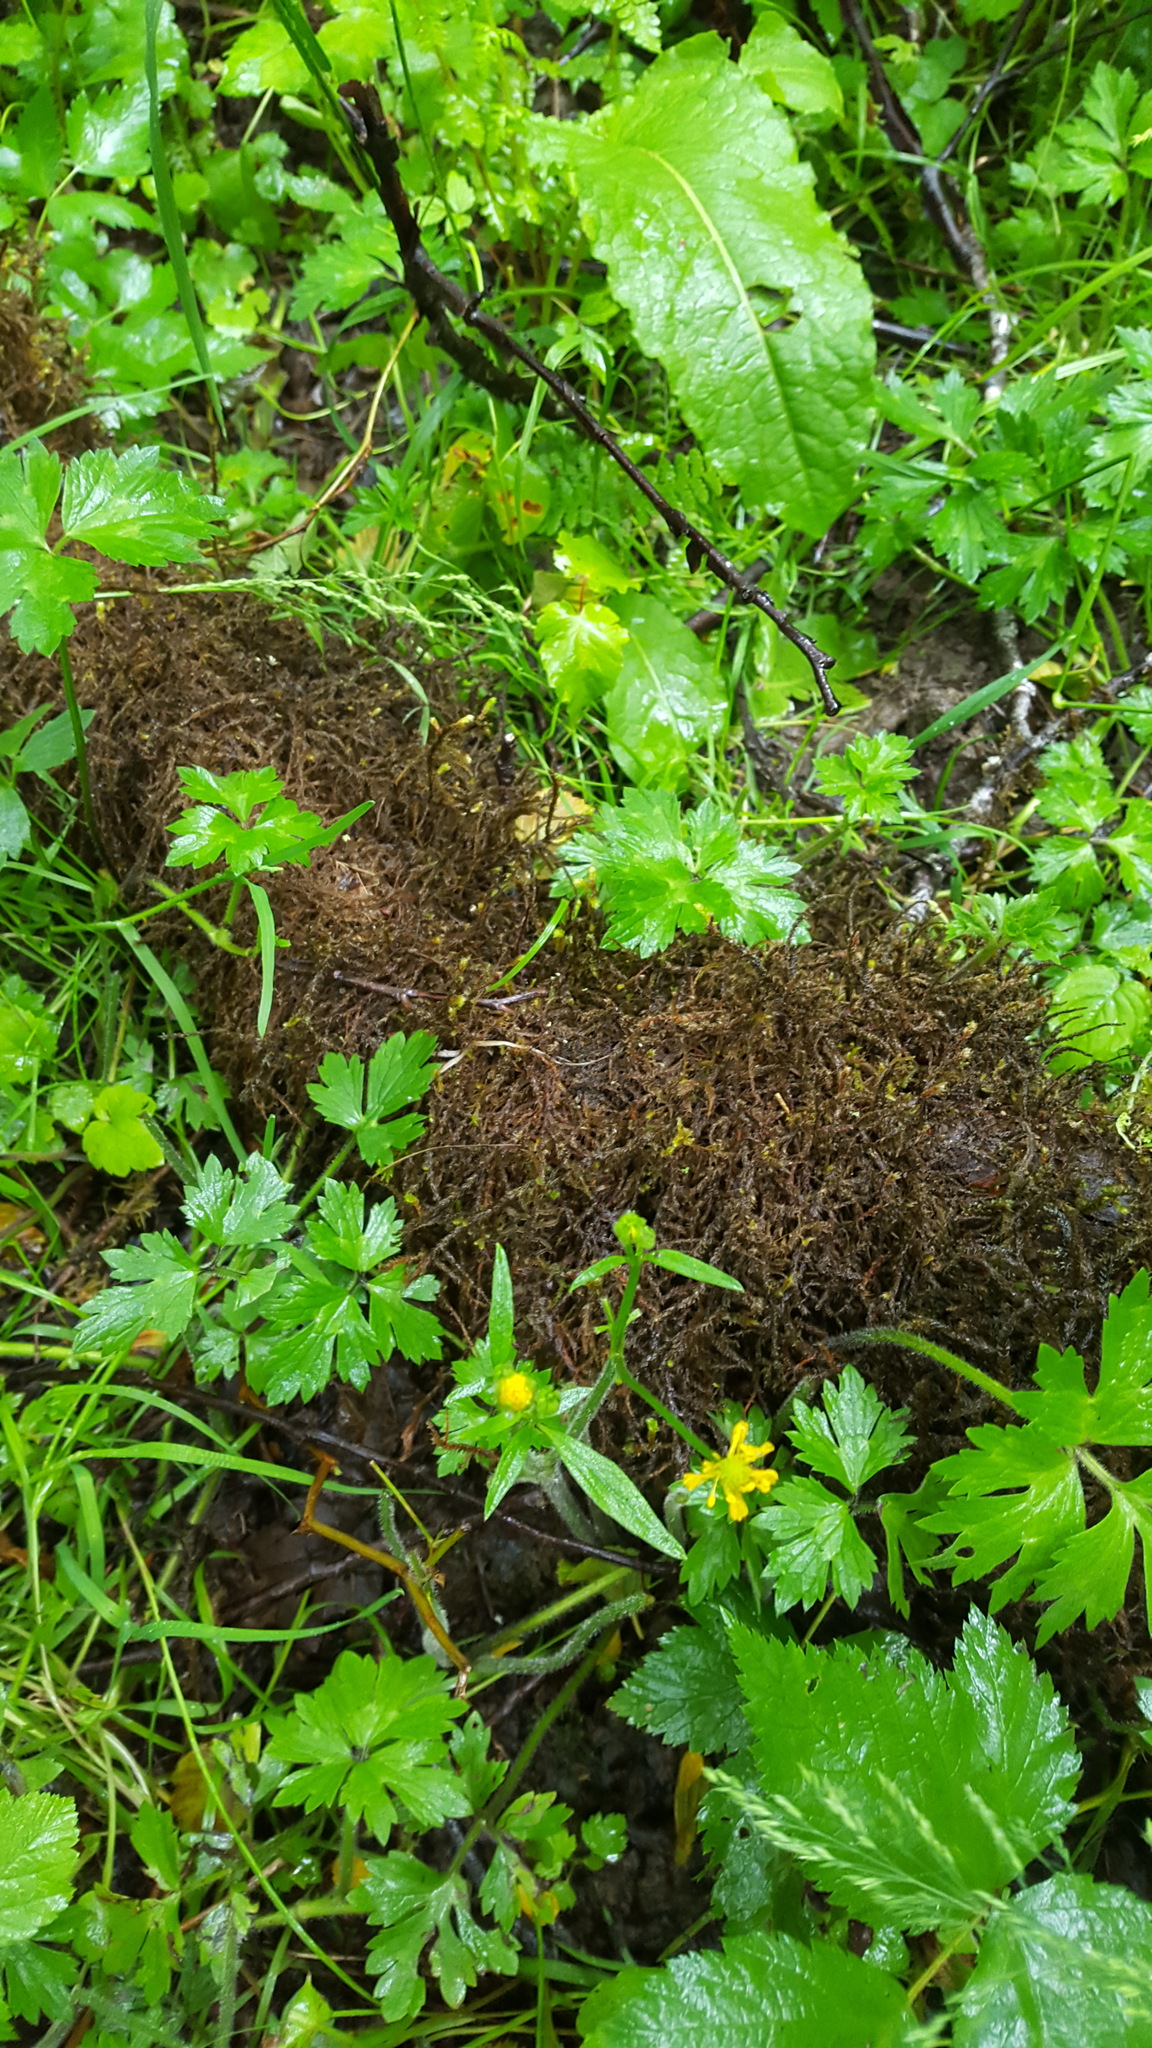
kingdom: Plantae
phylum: Tracheophyta
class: Magnoliopsida
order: Ranunculales
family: Ranunculaceae
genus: Ranunculus
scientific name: Ranunculus repens
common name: Creeping buttercup
